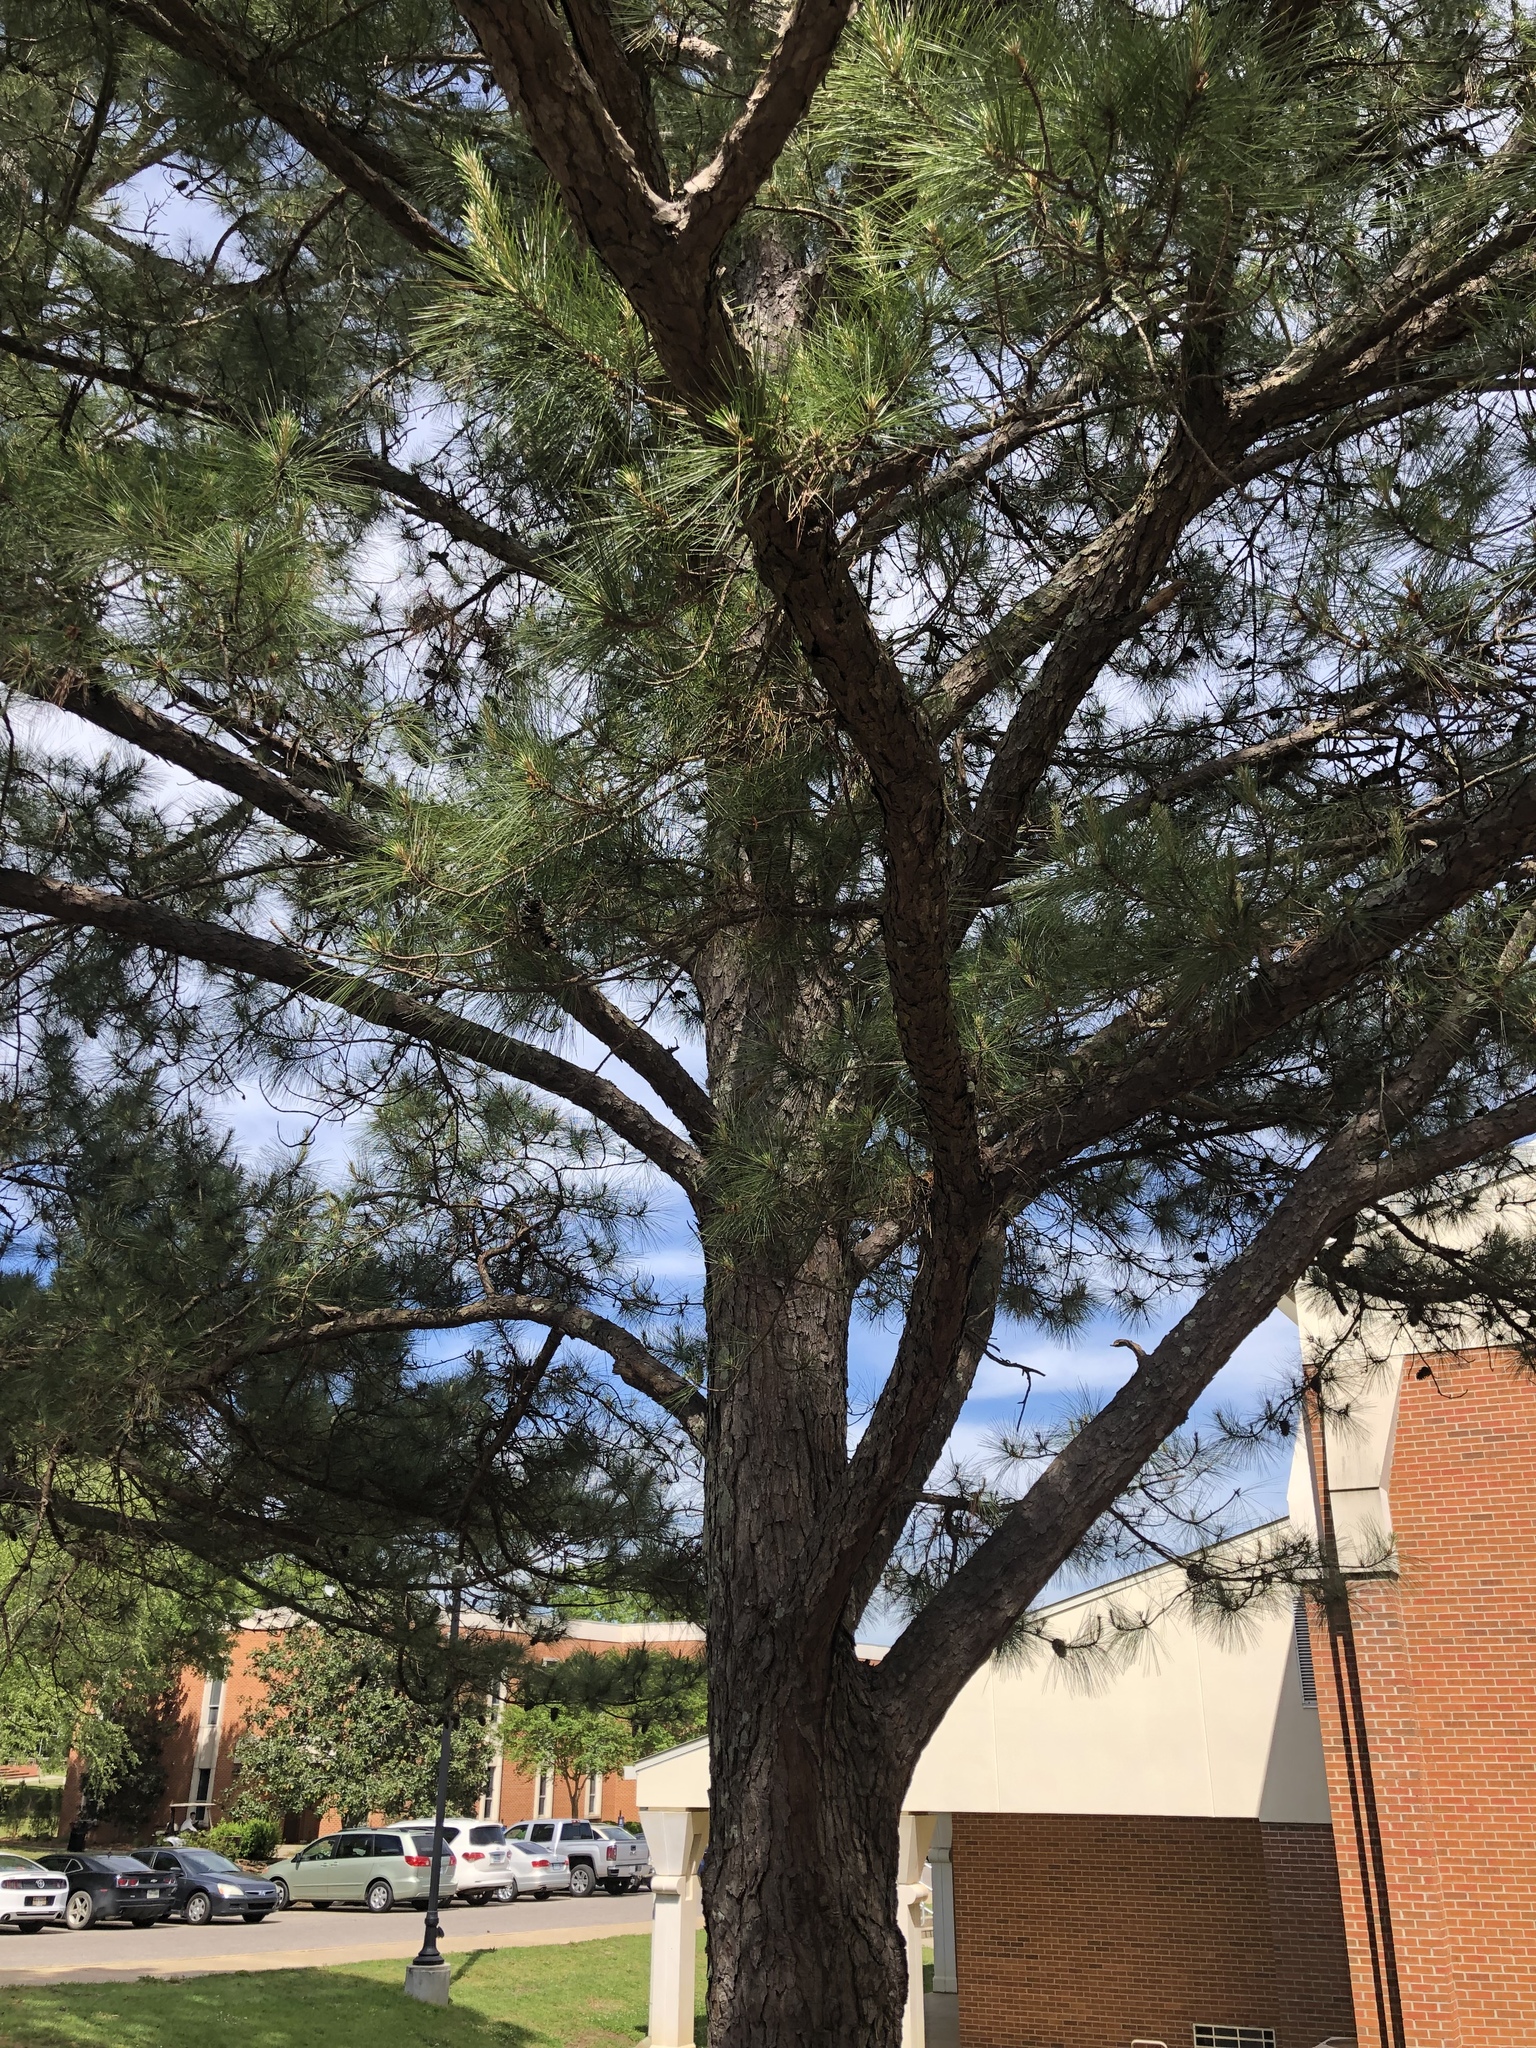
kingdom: Plantae
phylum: Tracheophyta
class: Pinopsida
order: Pinales
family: Pinaceae
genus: Pinus
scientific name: Pinus taeda
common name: Loblolly pine
